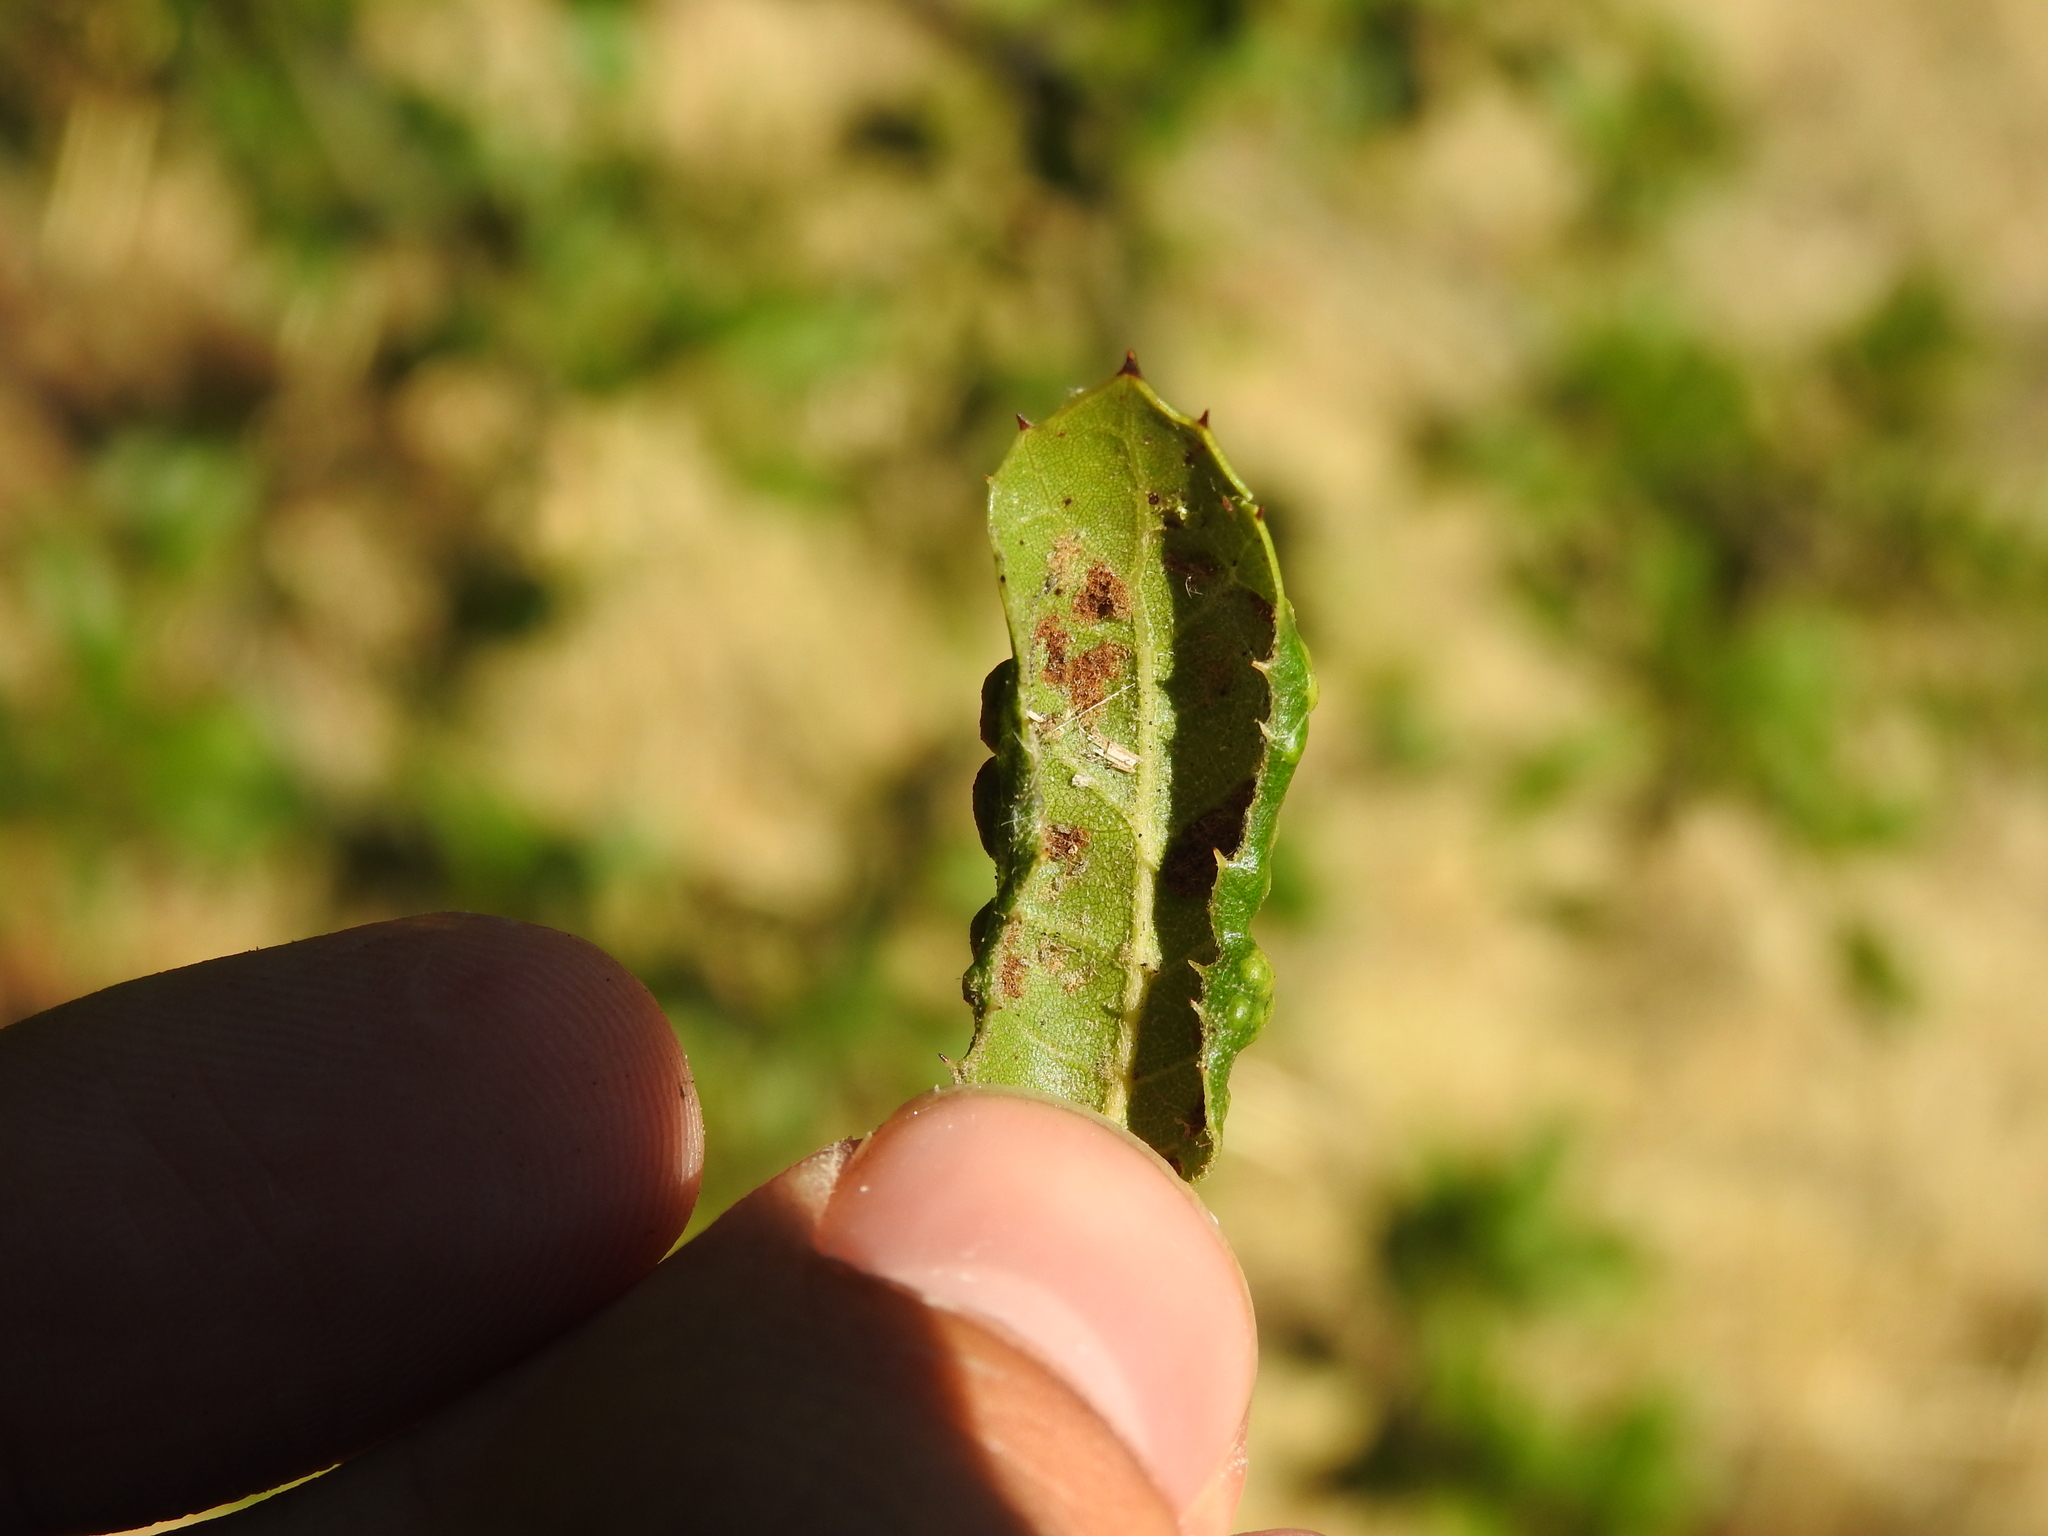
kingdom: Animalia
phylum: Arthropoda
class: Arachnida
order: Trombidiformes
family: Eriophyidae
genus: Aceria
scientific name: Aceria
